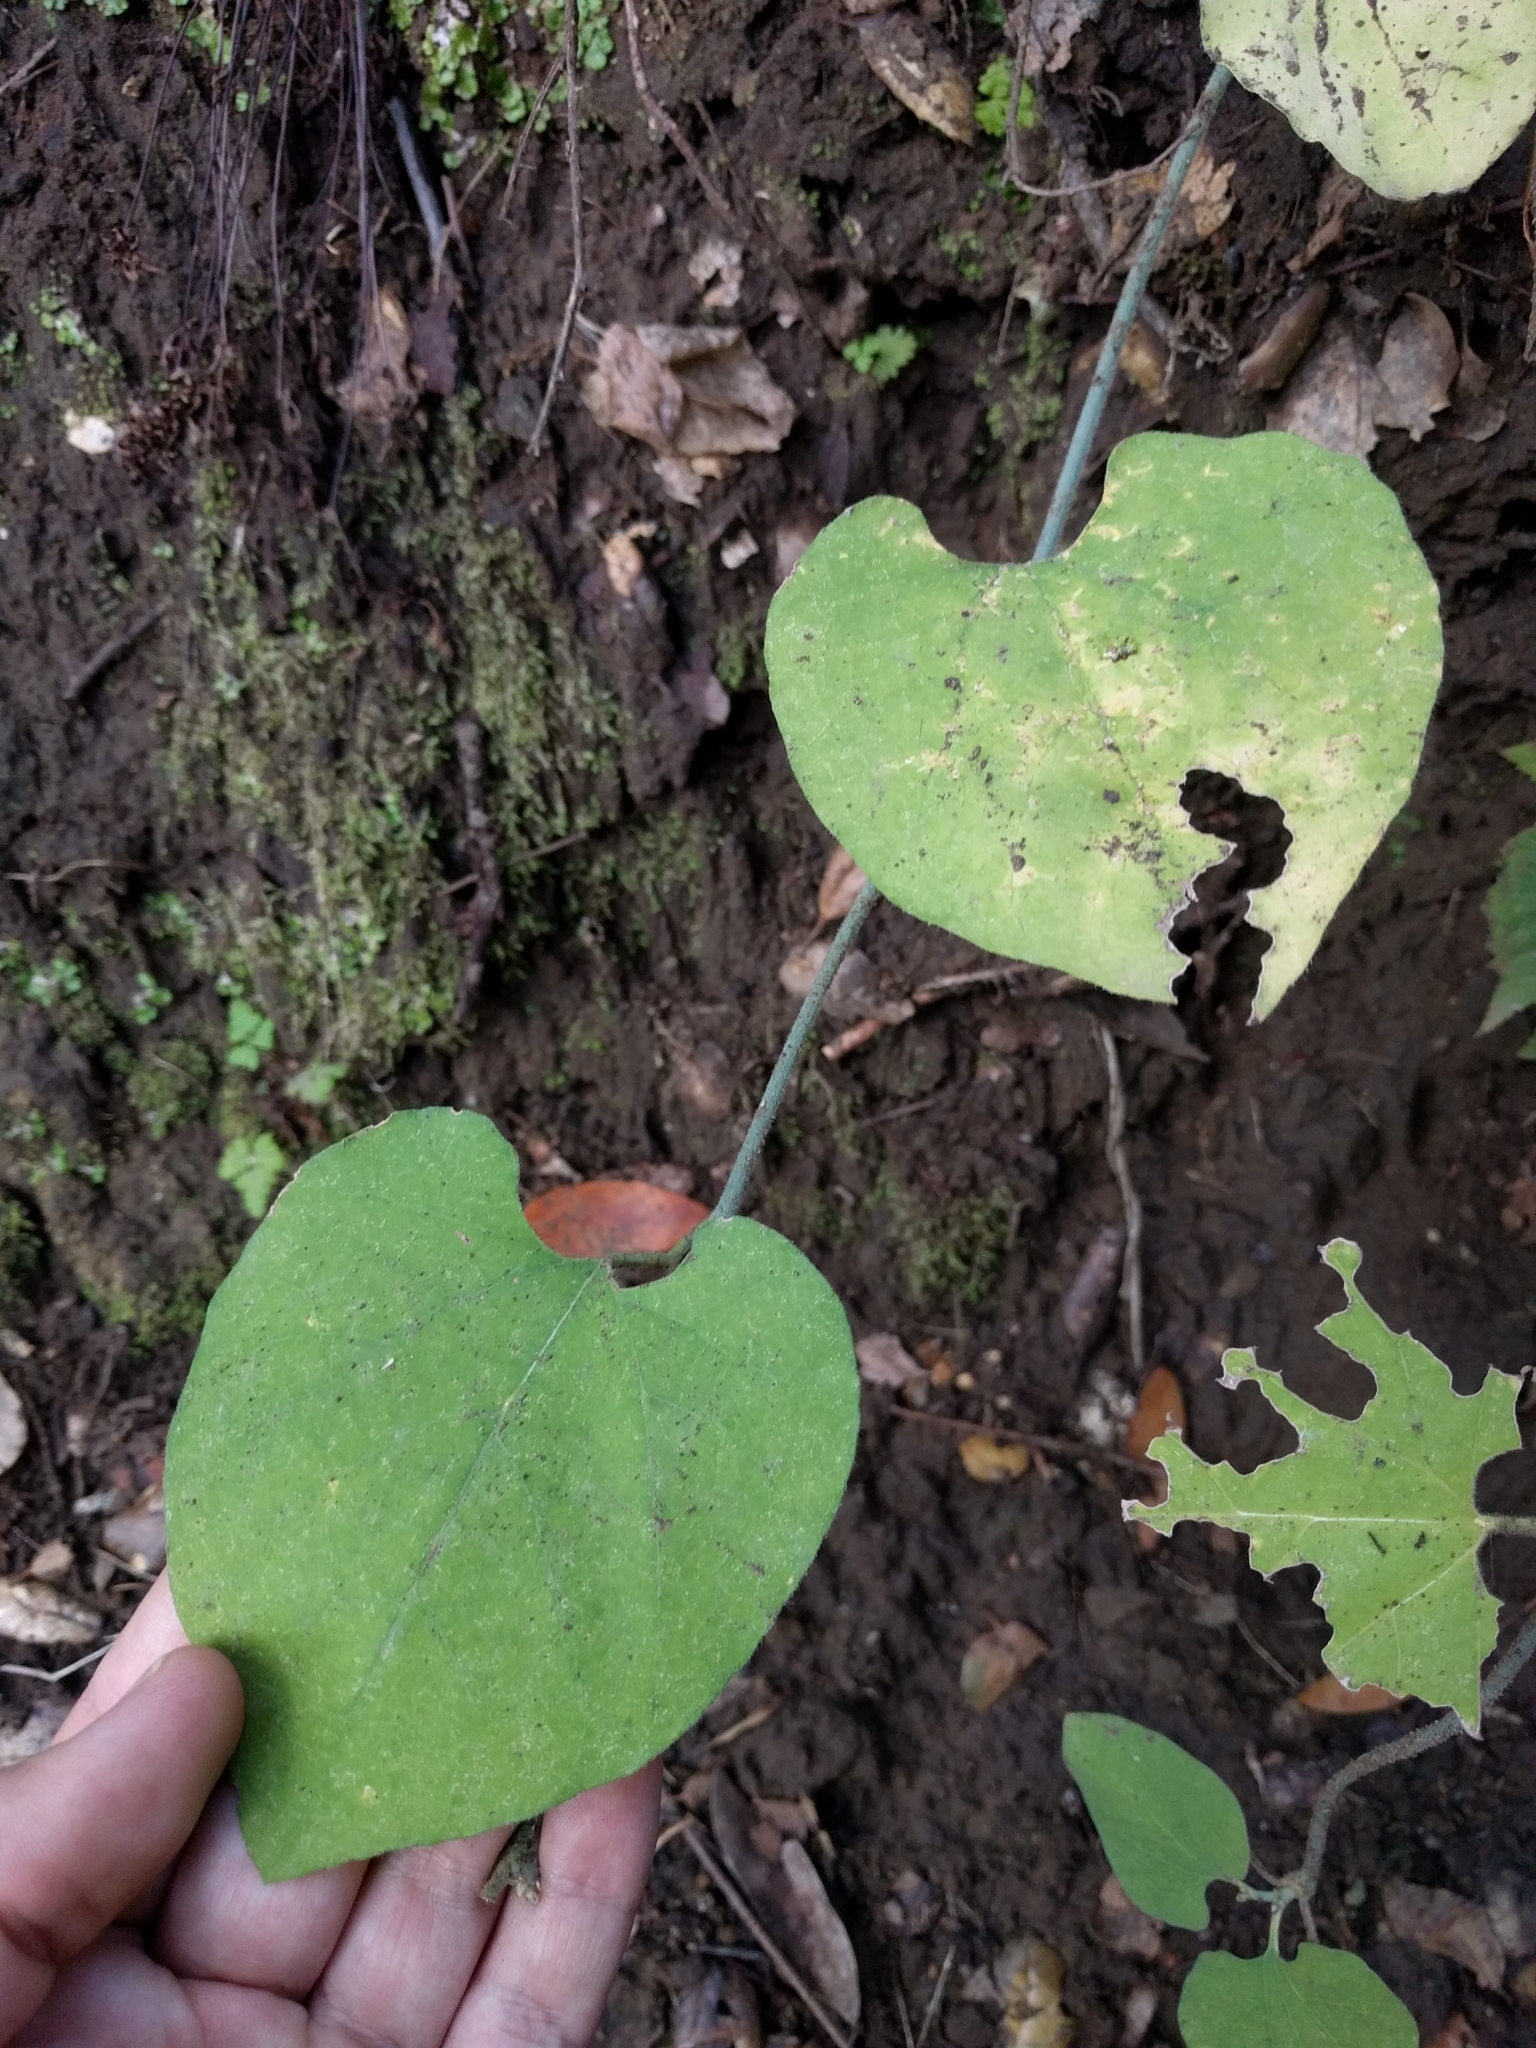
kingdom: Plantae
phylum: Tracheophyta
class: Magnoliopsida
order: Piperales
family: Aristolochiaceae
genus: Isotrema
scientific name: Isotrema californicum
